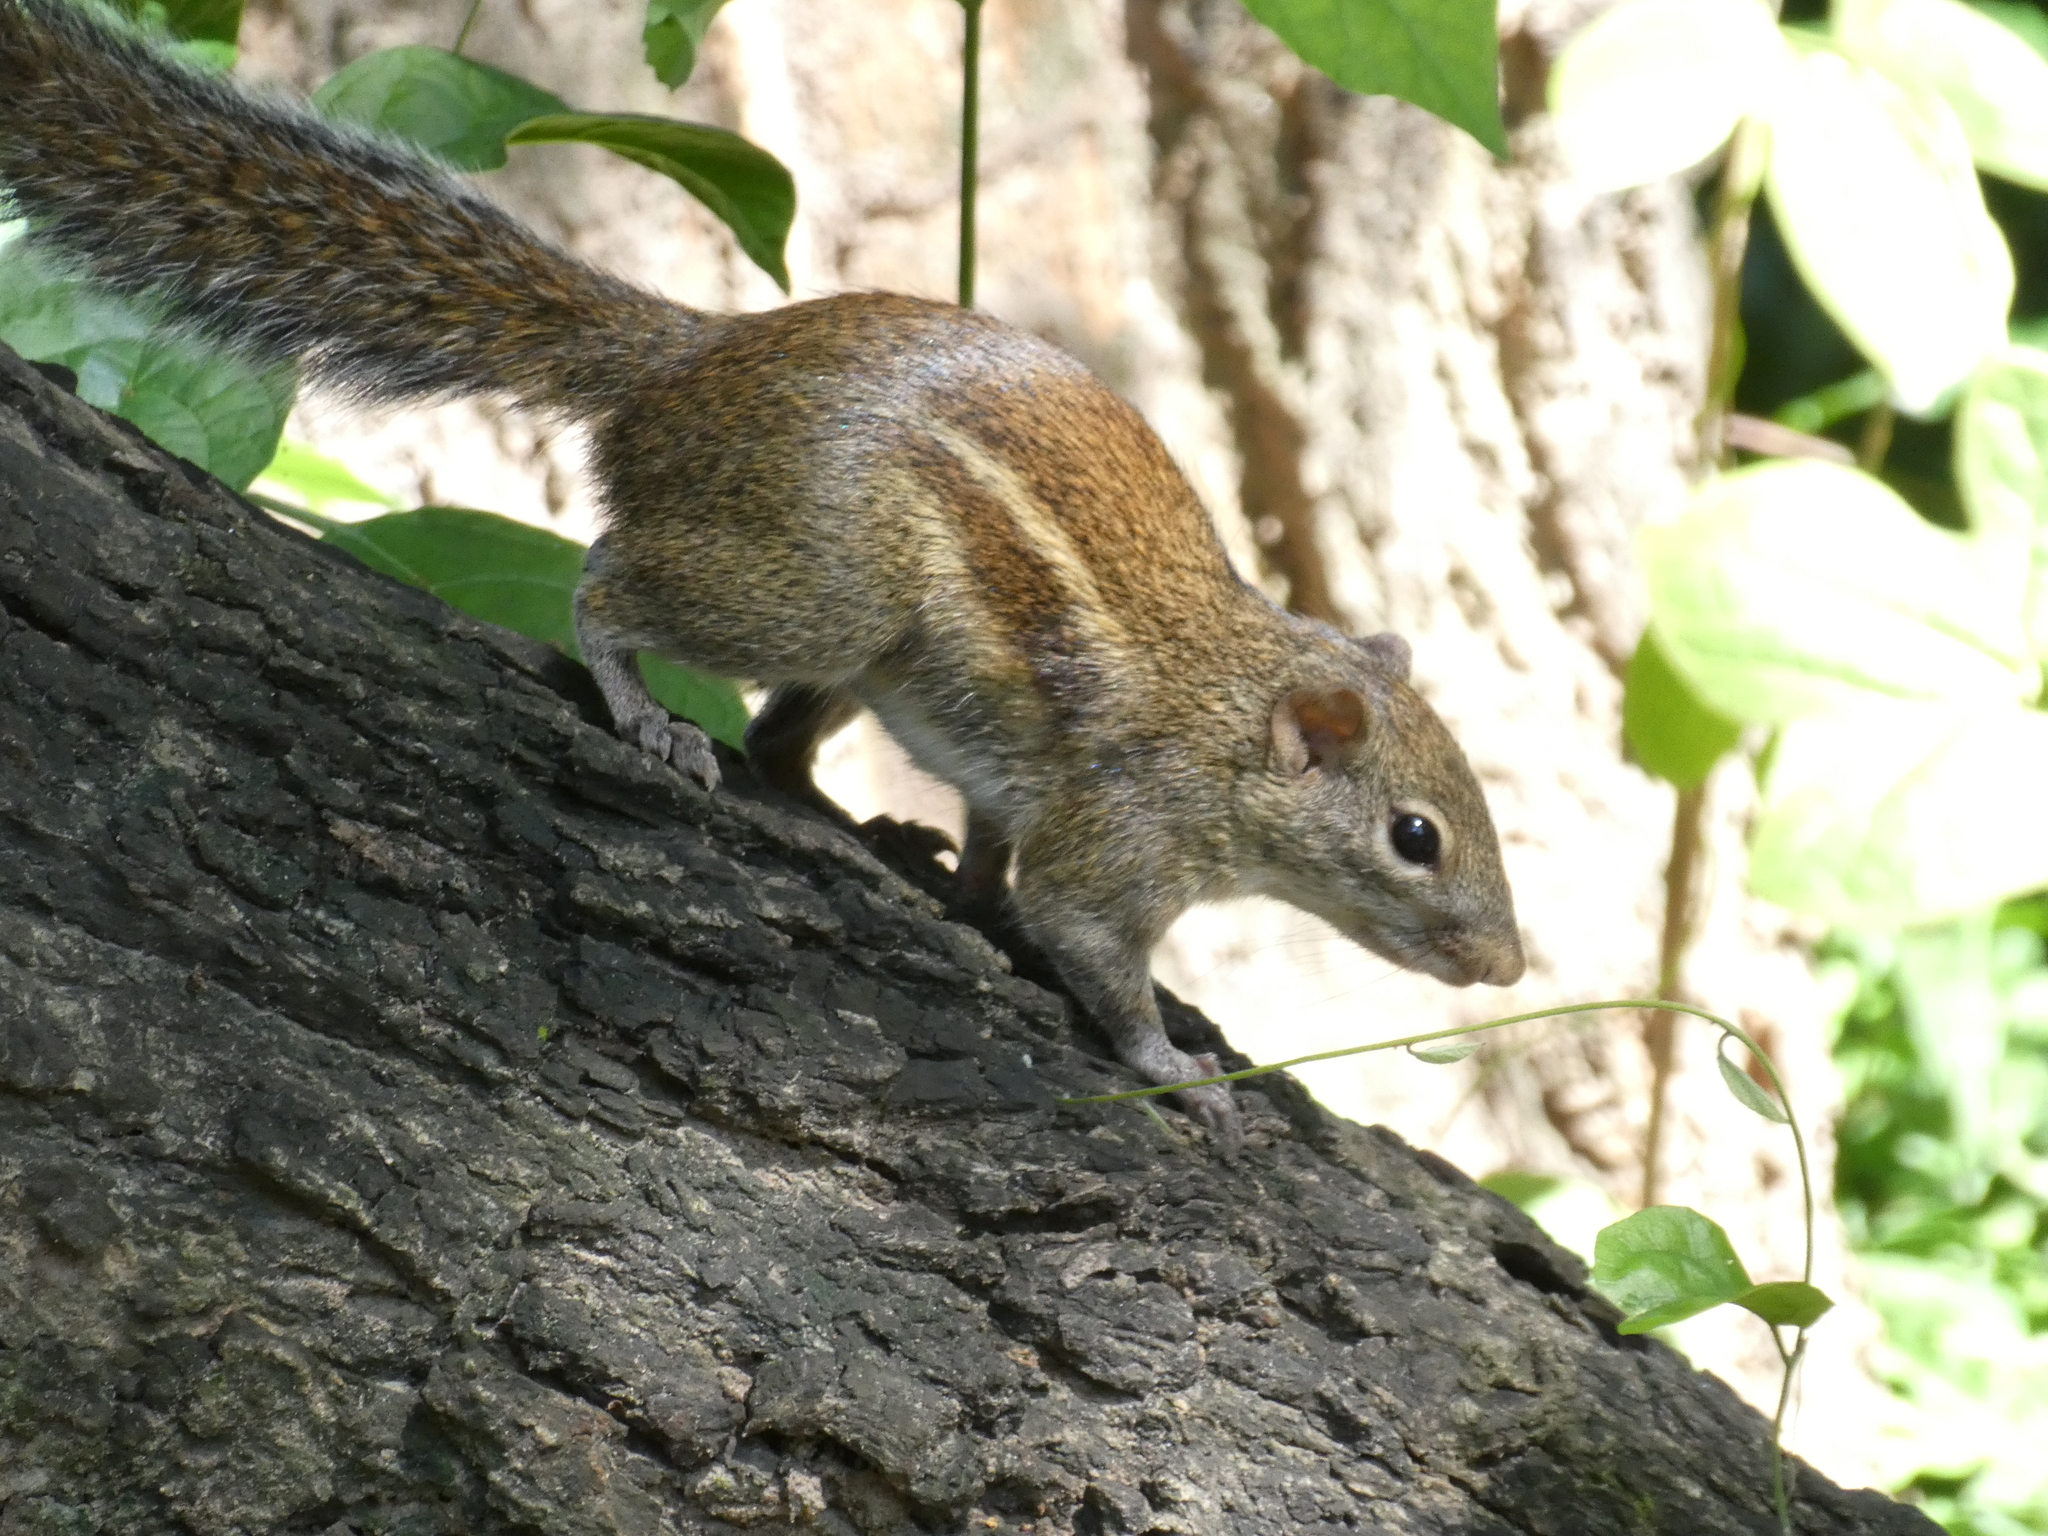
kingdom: Animalia
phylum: Chordata
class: Mammalia
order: Rodentia
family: Sciuridae
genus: Menetes
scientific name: Menetes berdmorei
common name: Indochinese ground squirrel
